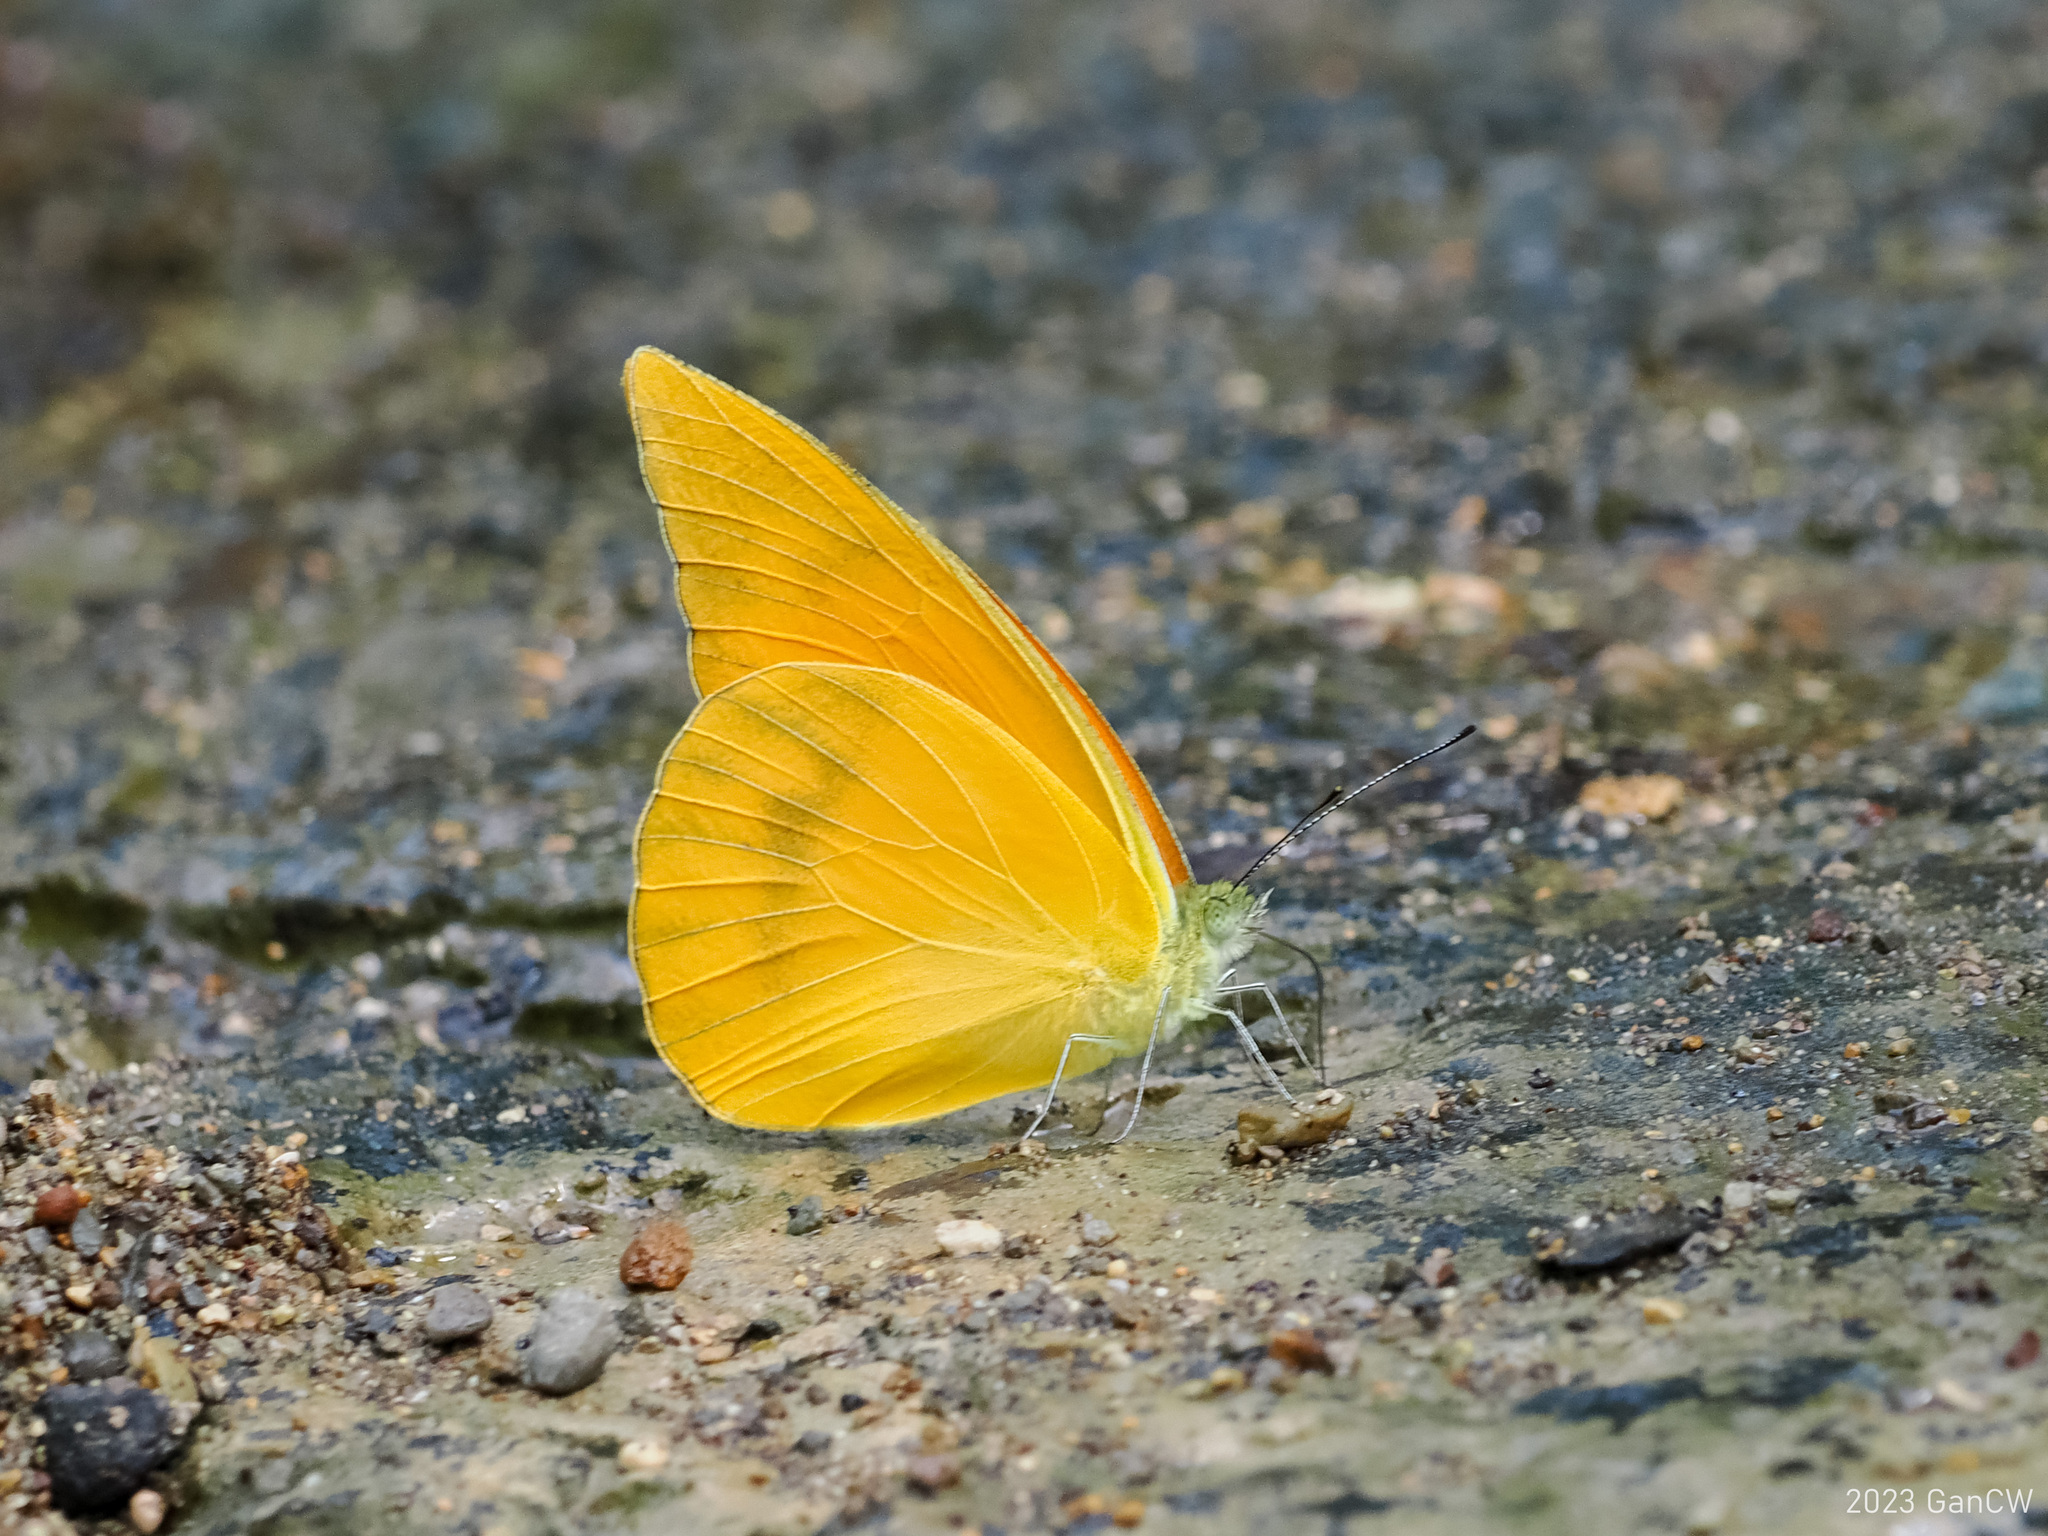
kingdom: Animalia
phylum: Arthropoda
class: Insecta
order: Lepidoptera
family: Pieridae
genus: Appias
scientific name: Appias zarinda
